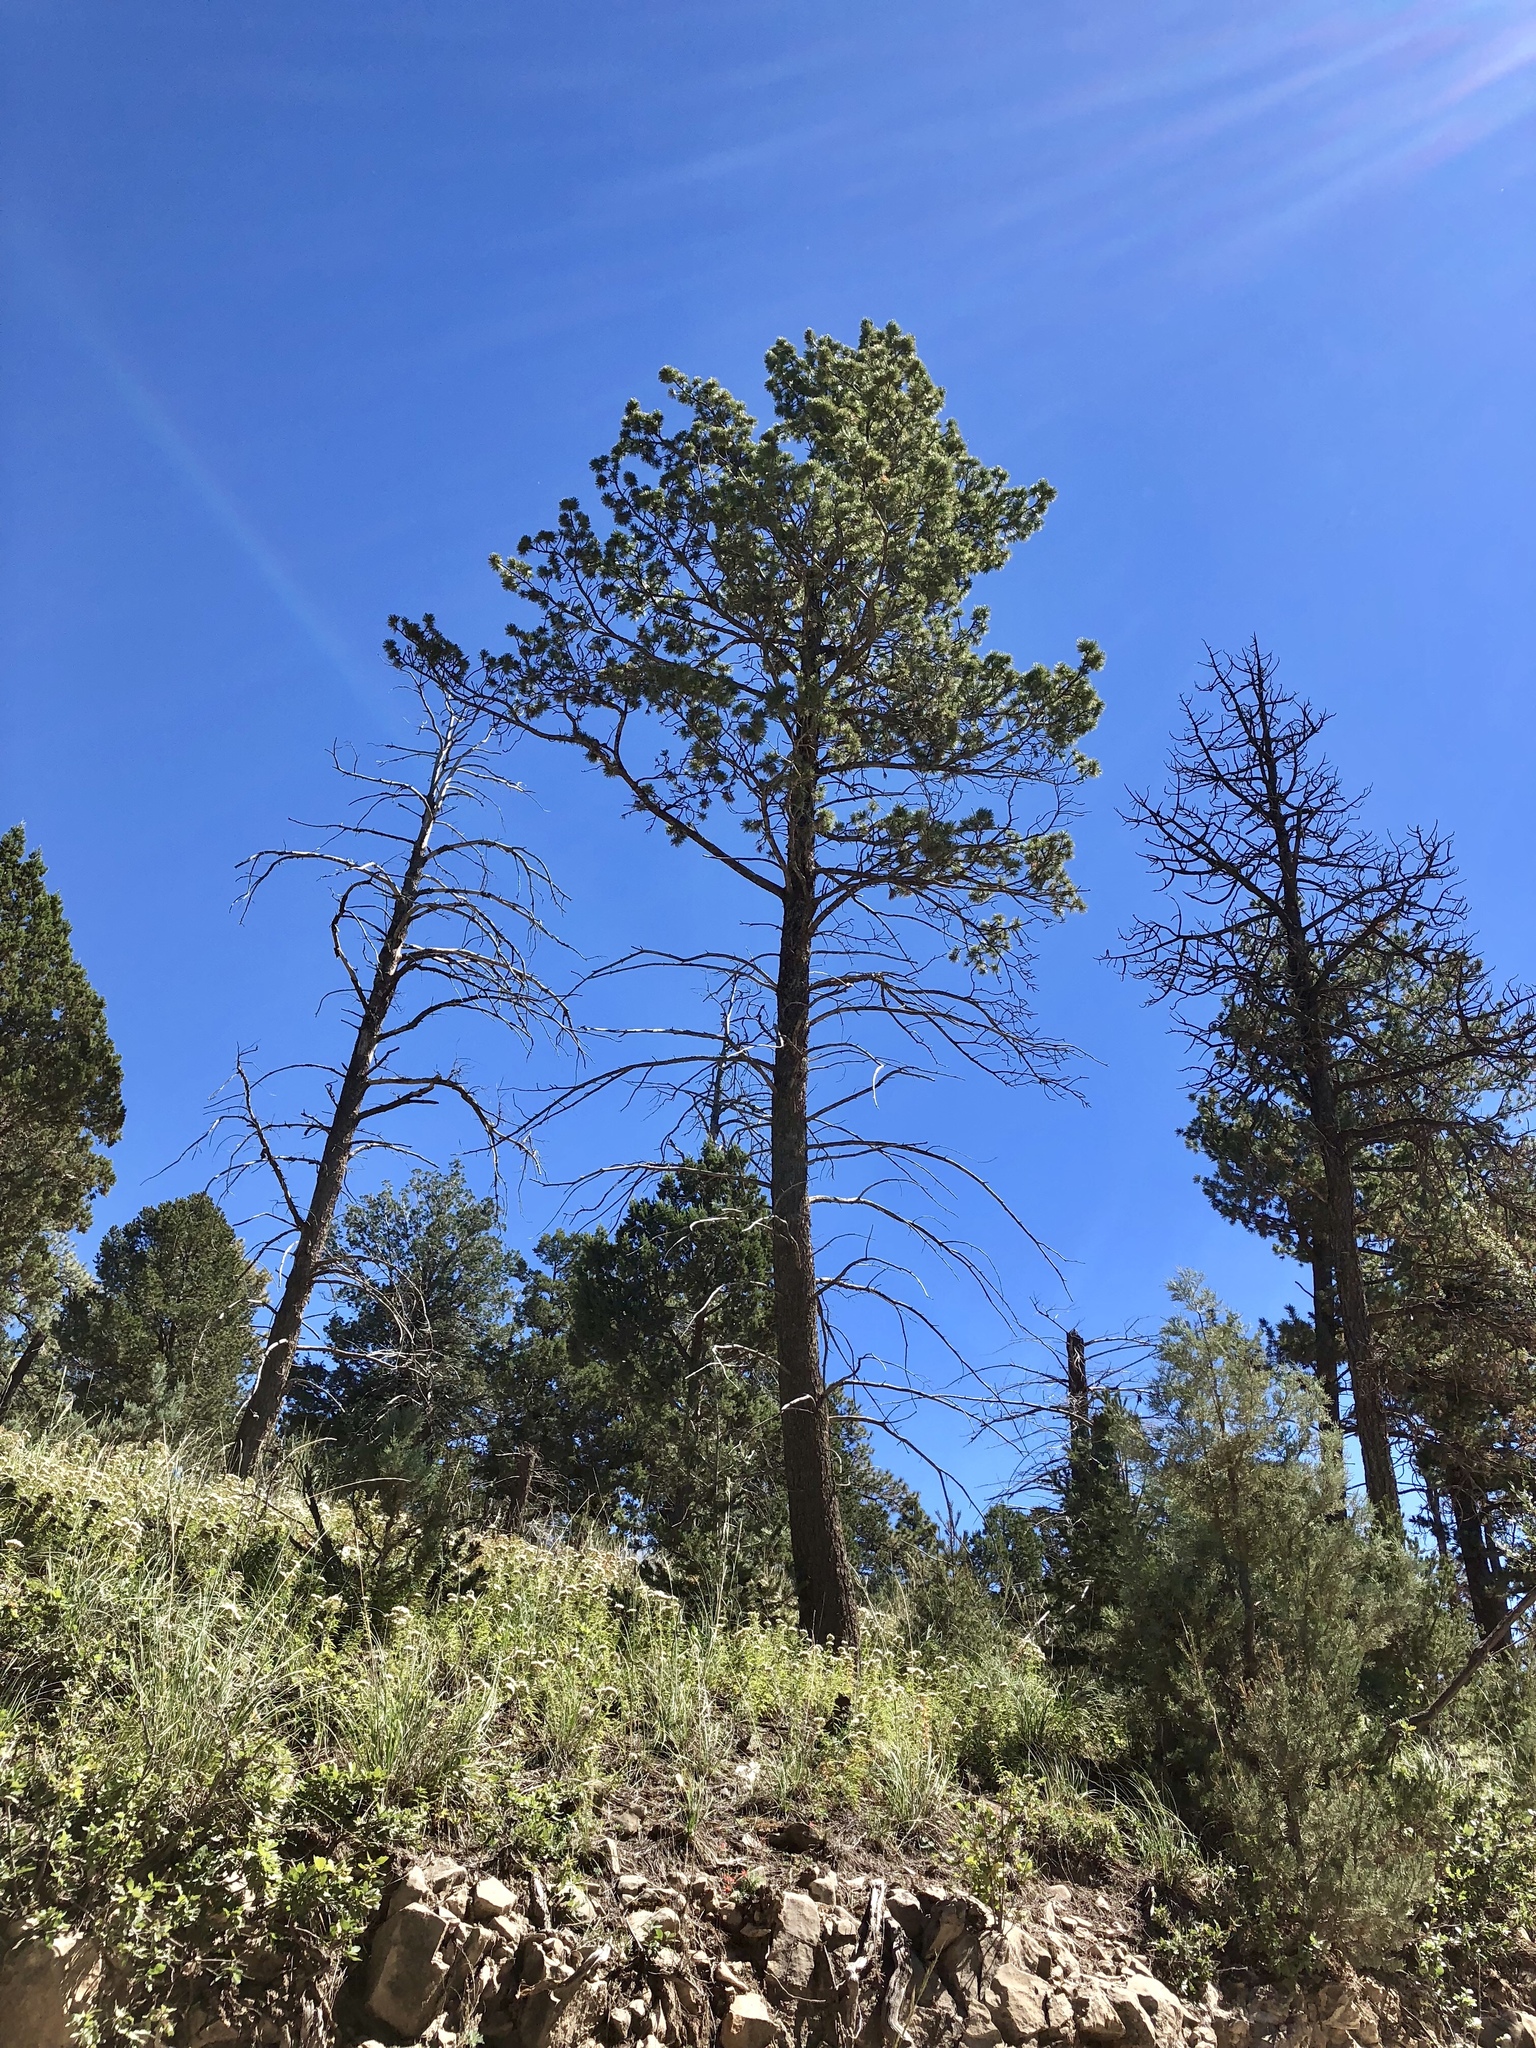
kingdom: Plantae
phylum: Tracheophyta
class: Pinopsida
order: Pinales
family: Pinaceae
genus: Pinus
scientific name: Pinus ponderosa
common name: Western yellow-pine
